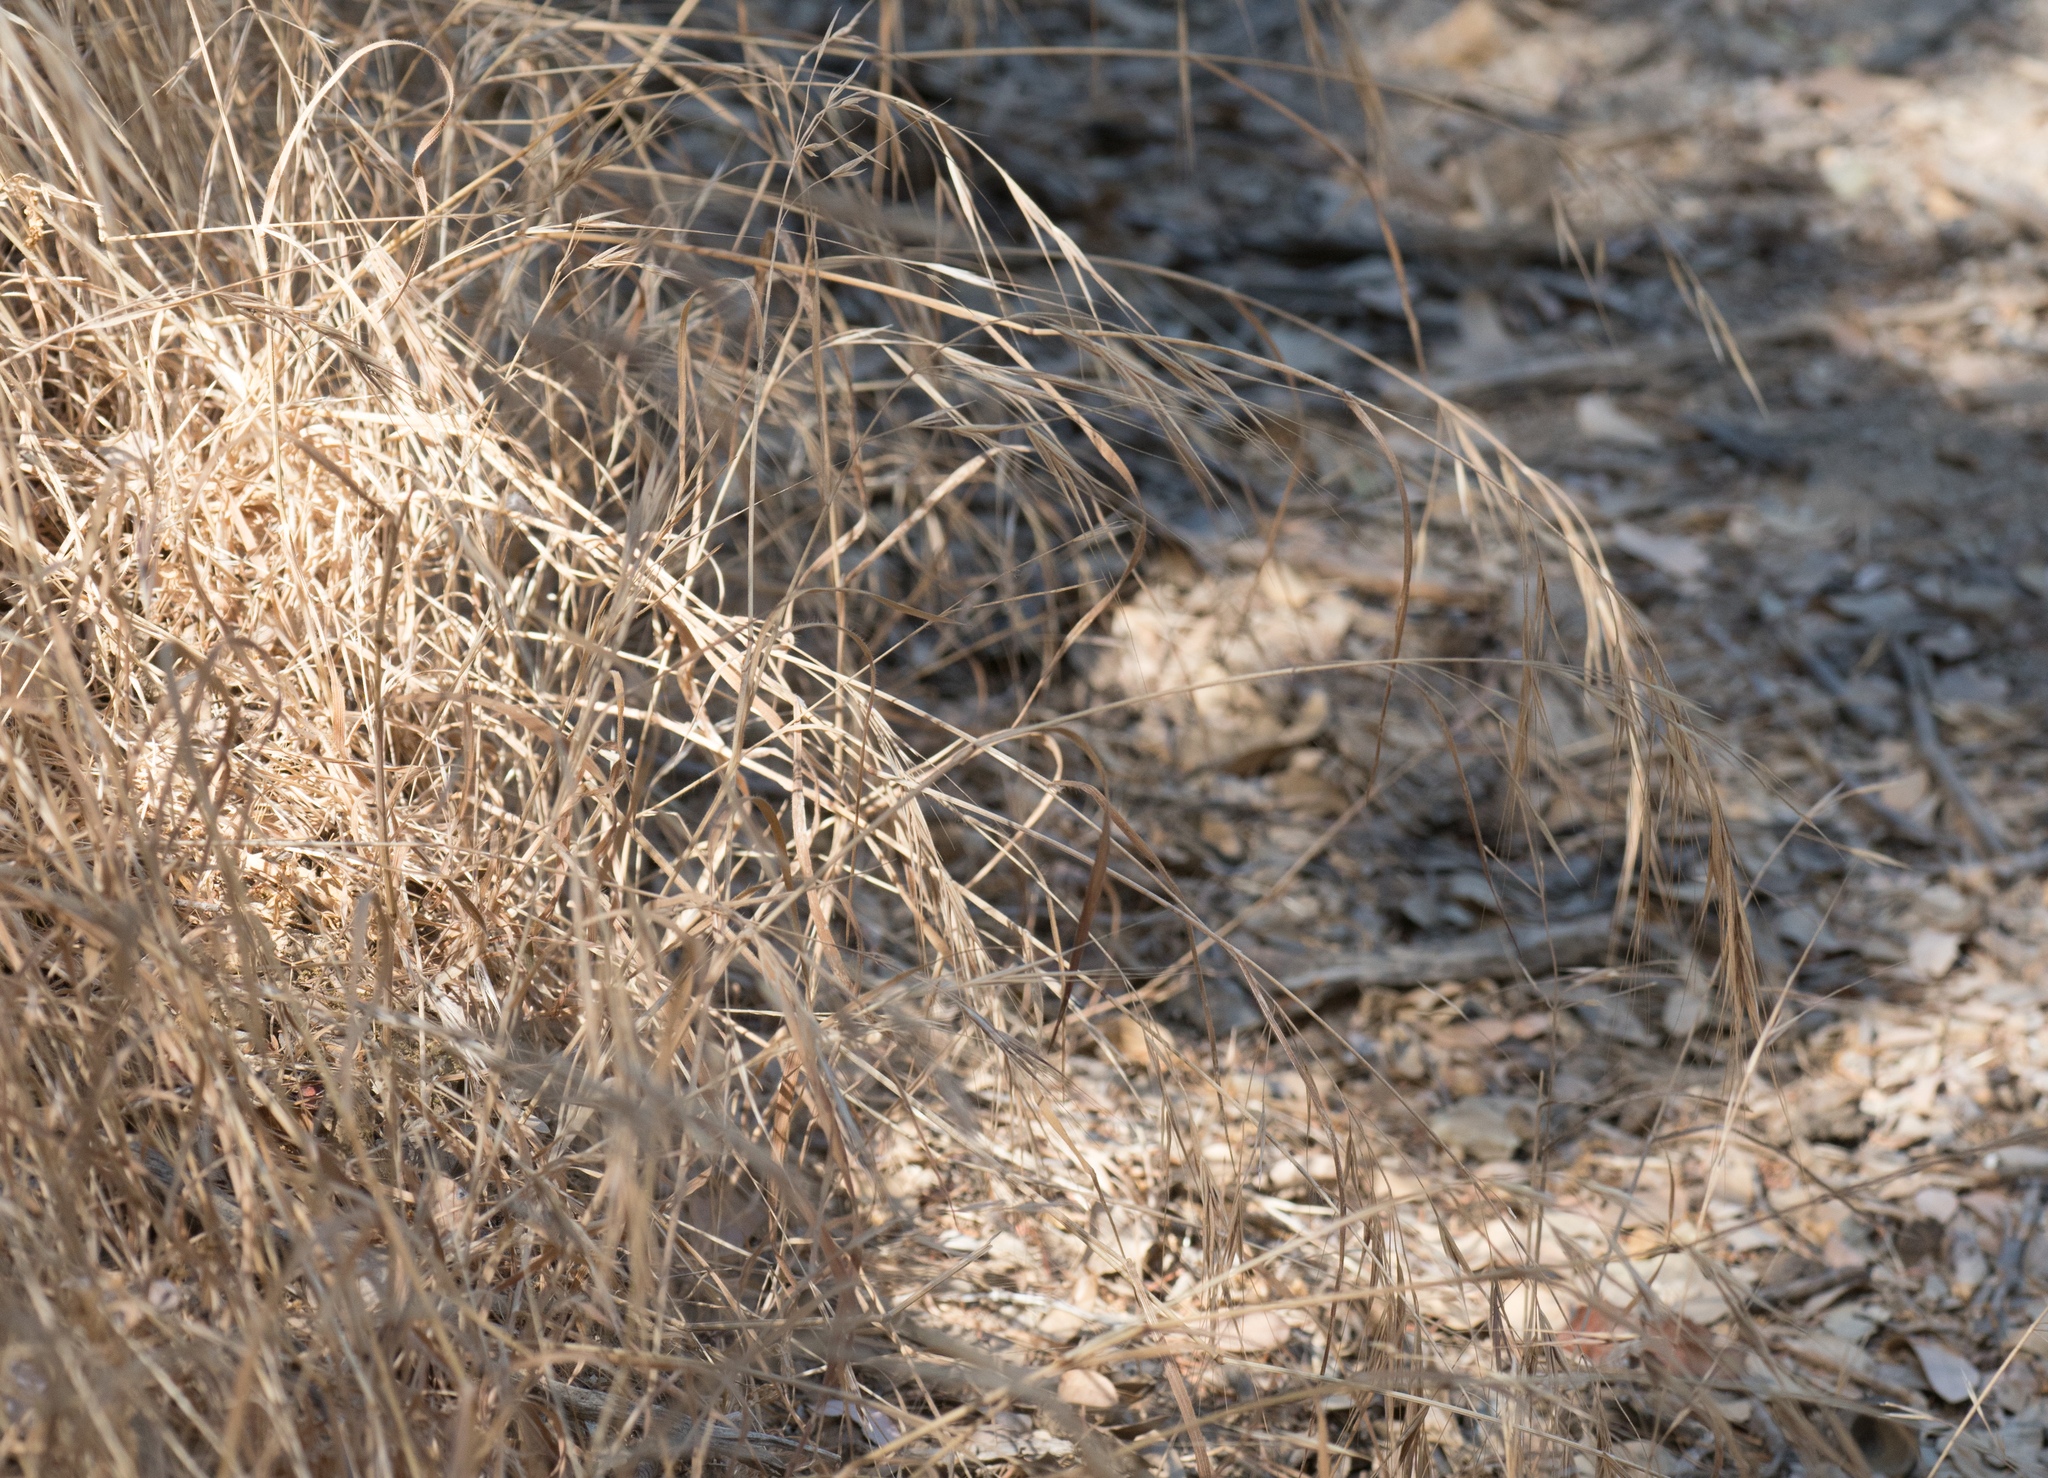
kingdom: Plantae
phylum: Tracheophyta
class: Liliopsida
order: Poales
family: Poaceae
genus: Bromus
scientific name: Bromus diandrus
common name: Ripgut brome
